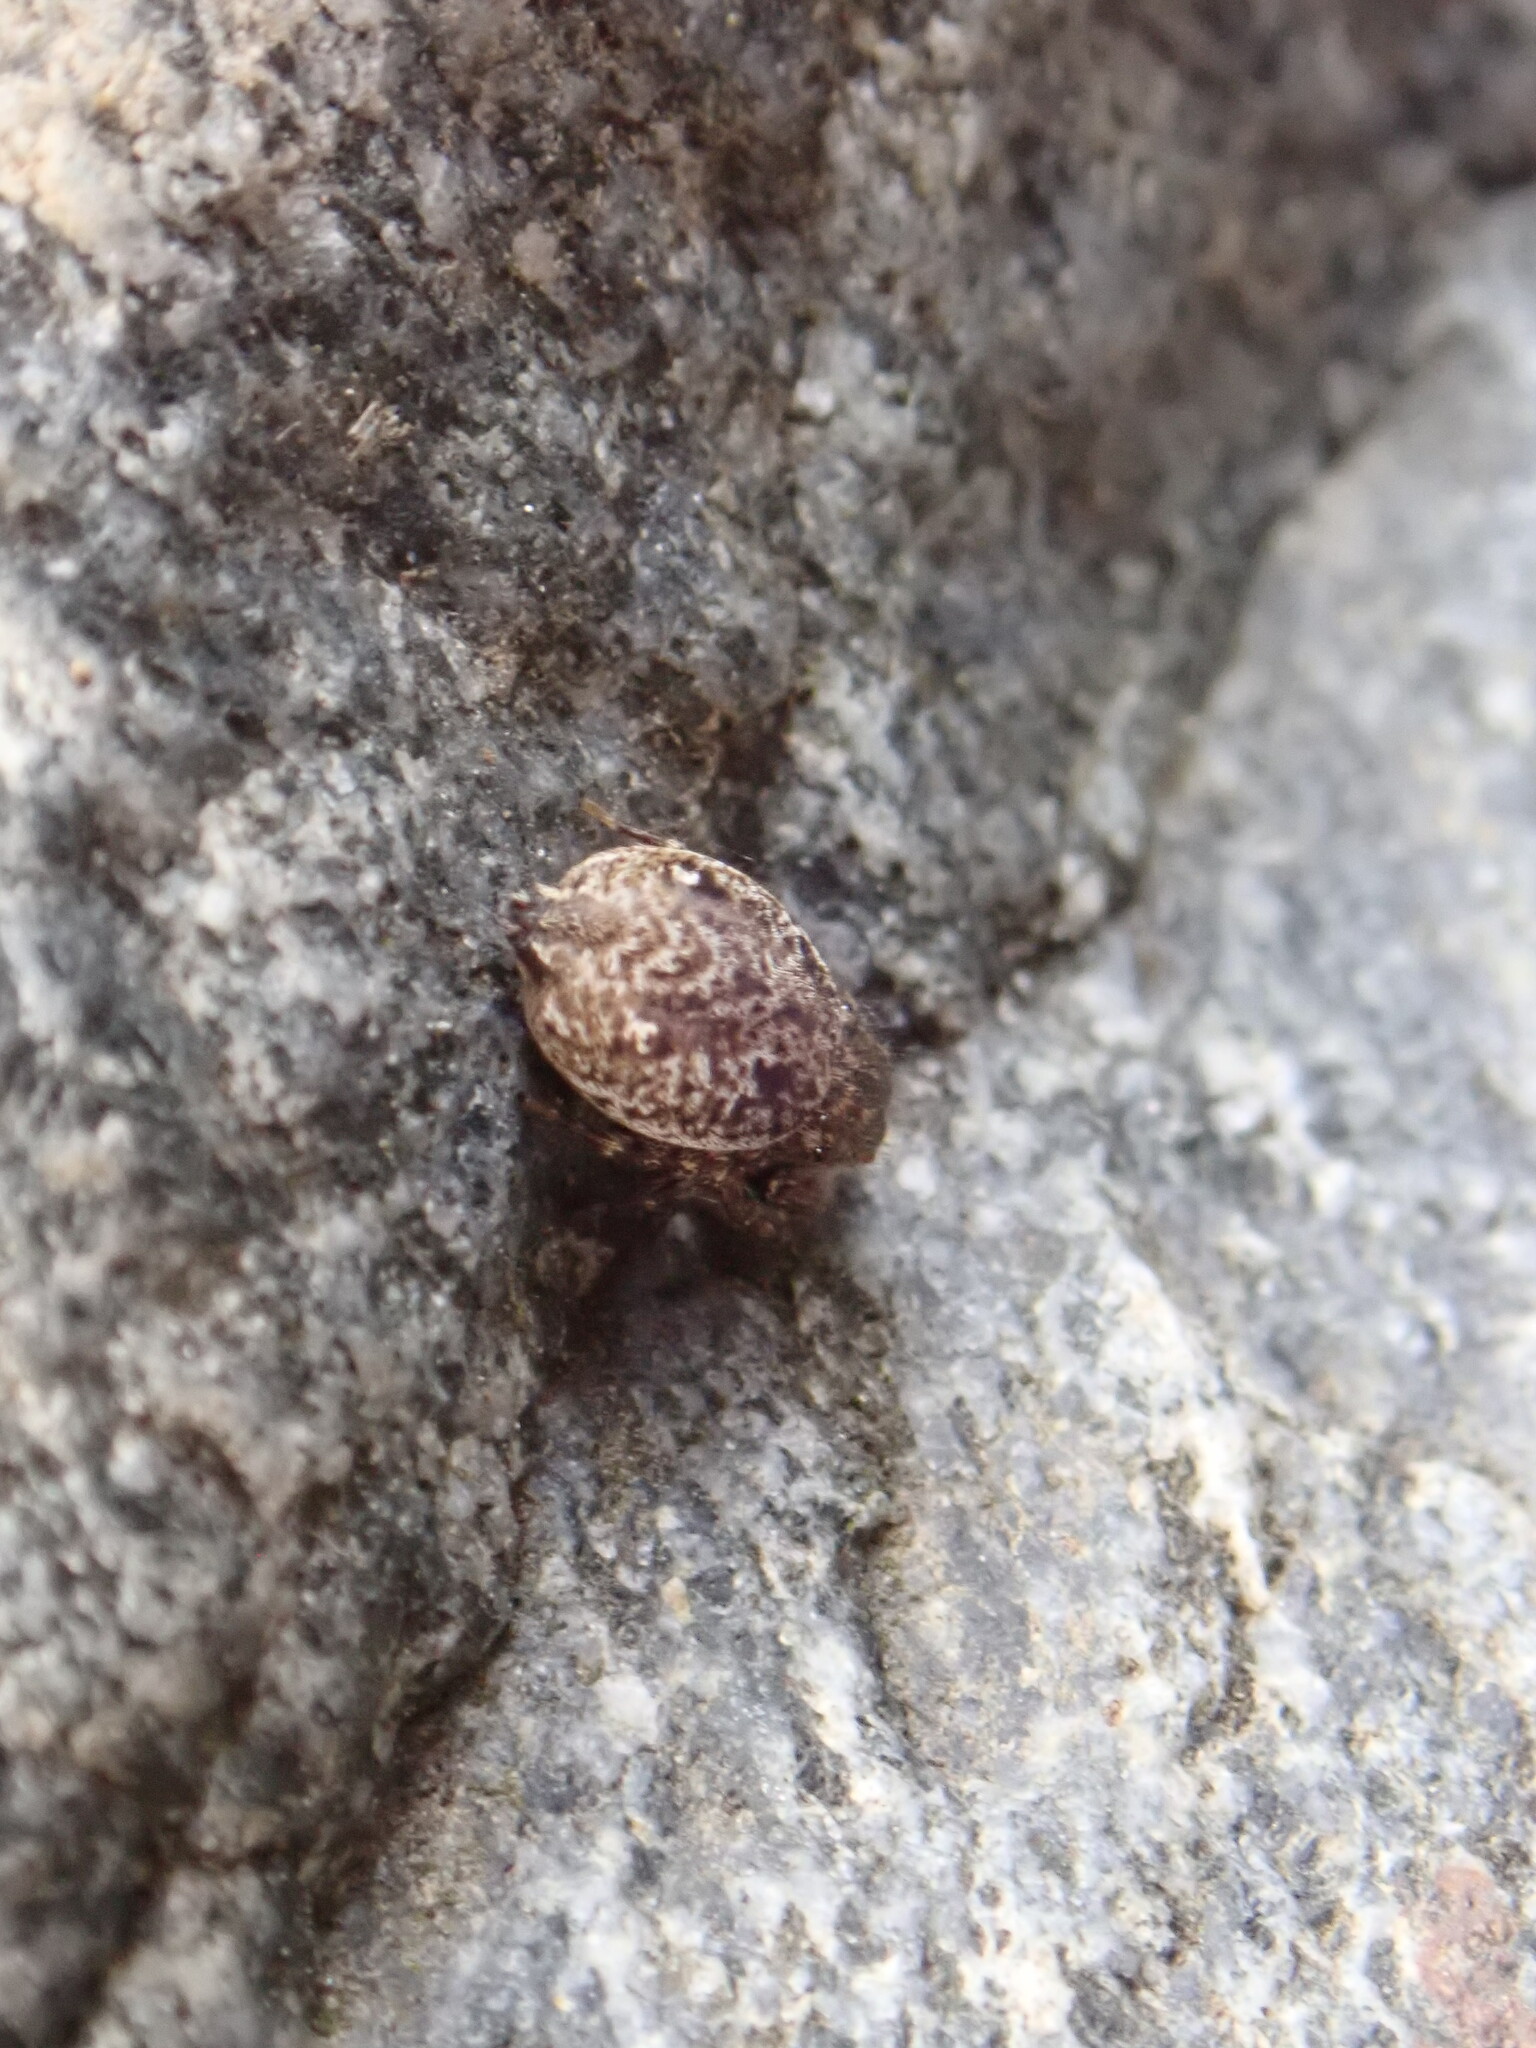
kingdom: Animalia
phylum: Arthropoda
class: Arachnida
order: Araneae
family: Salticidae
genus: Bianor
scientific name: Bianor albobimaculatus
